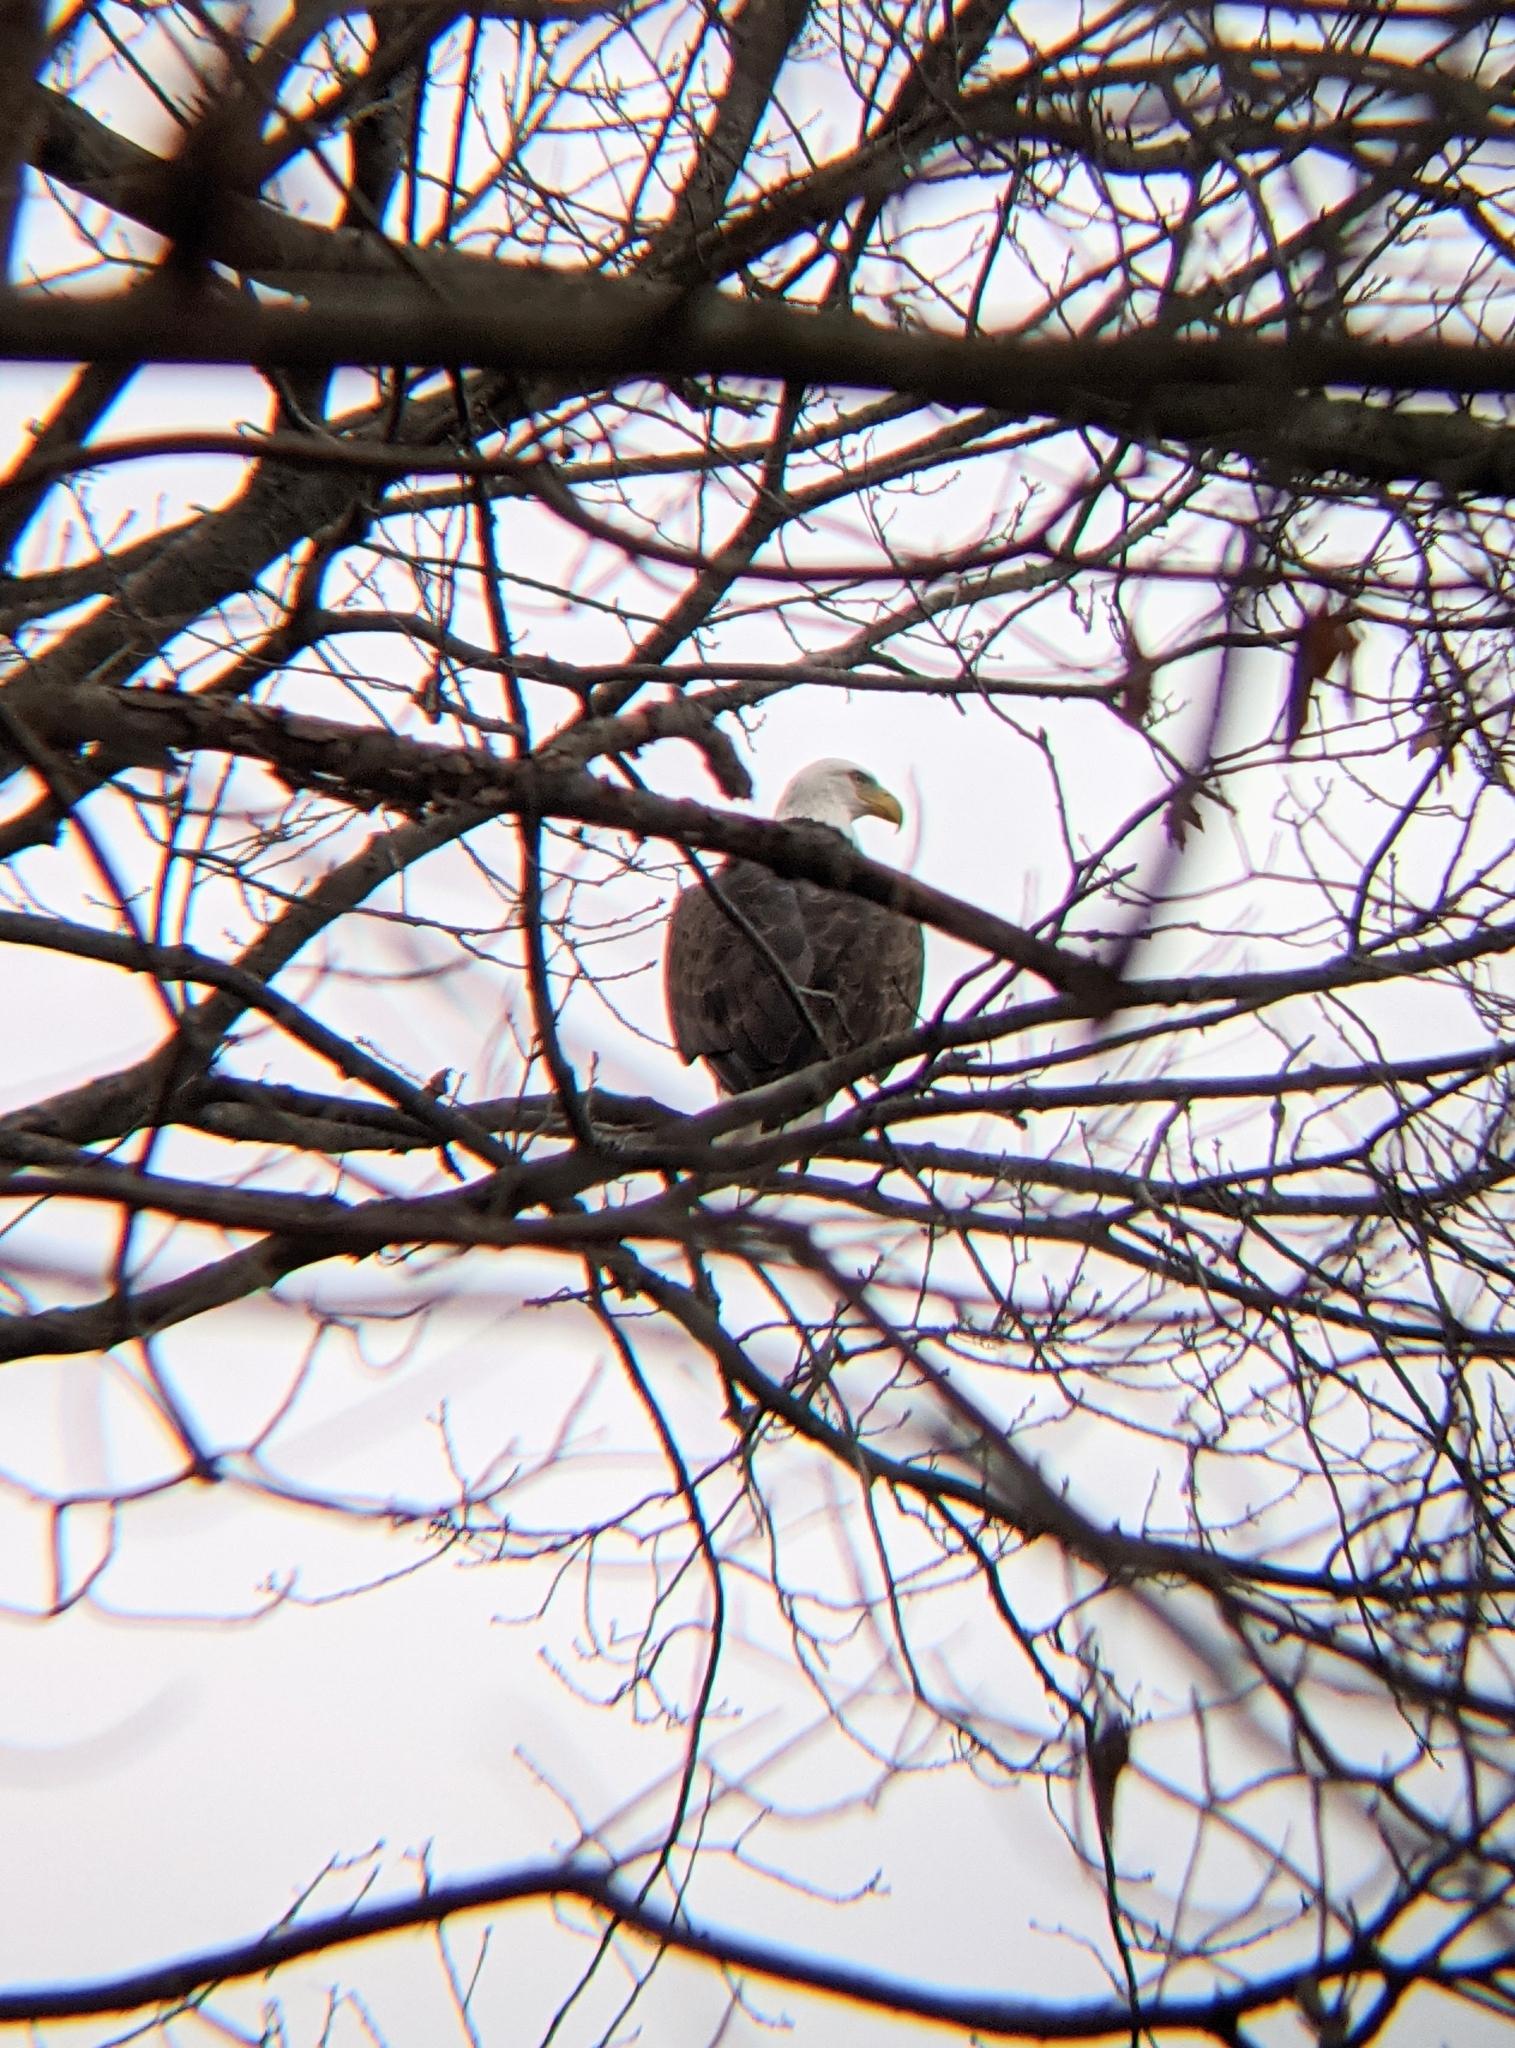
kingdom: Animalia
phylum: Chordata
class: Aves
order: Accipitriformes
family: Accipitridae
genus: Haliaeetus
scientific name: Haliaeetus leucocephalus
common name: Bald eagle
